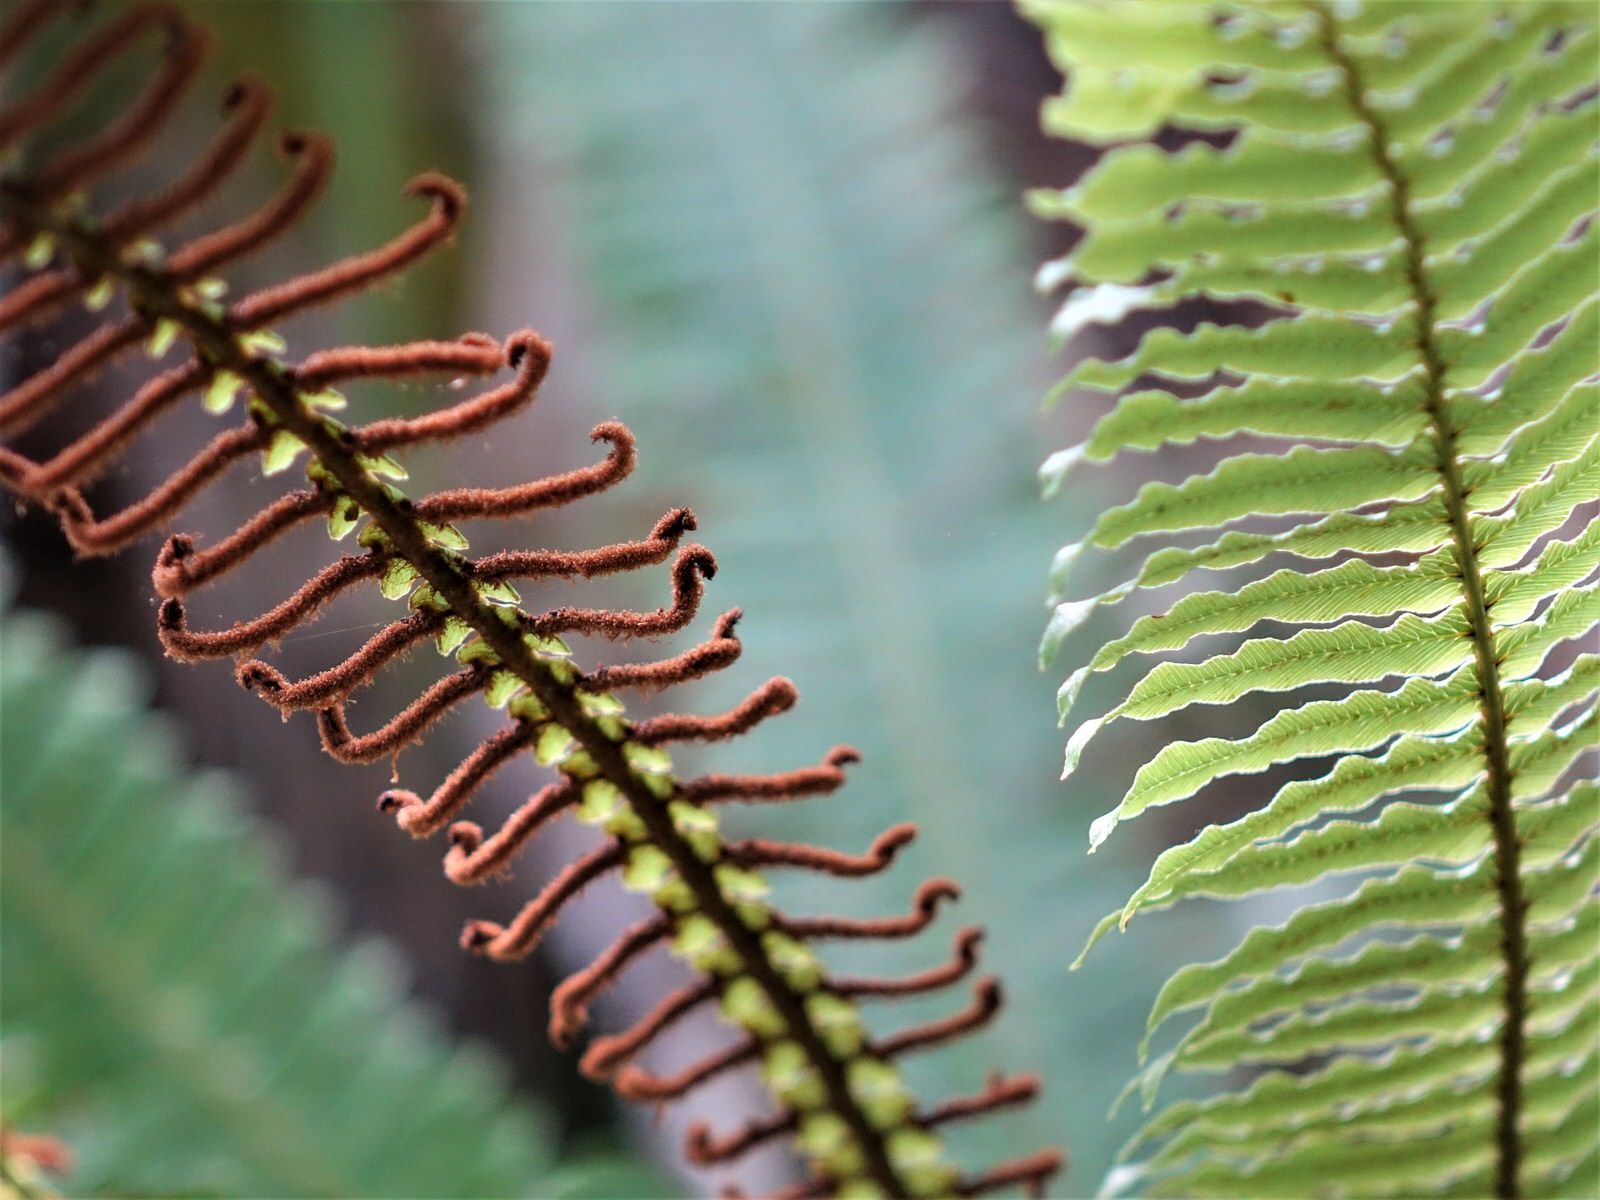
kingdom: Plantae
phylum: Tracheophyta
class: Polypodiopsida
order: Polypodiales
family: Blechnaceae
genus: Lomaria
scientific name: Lomaria discolor
